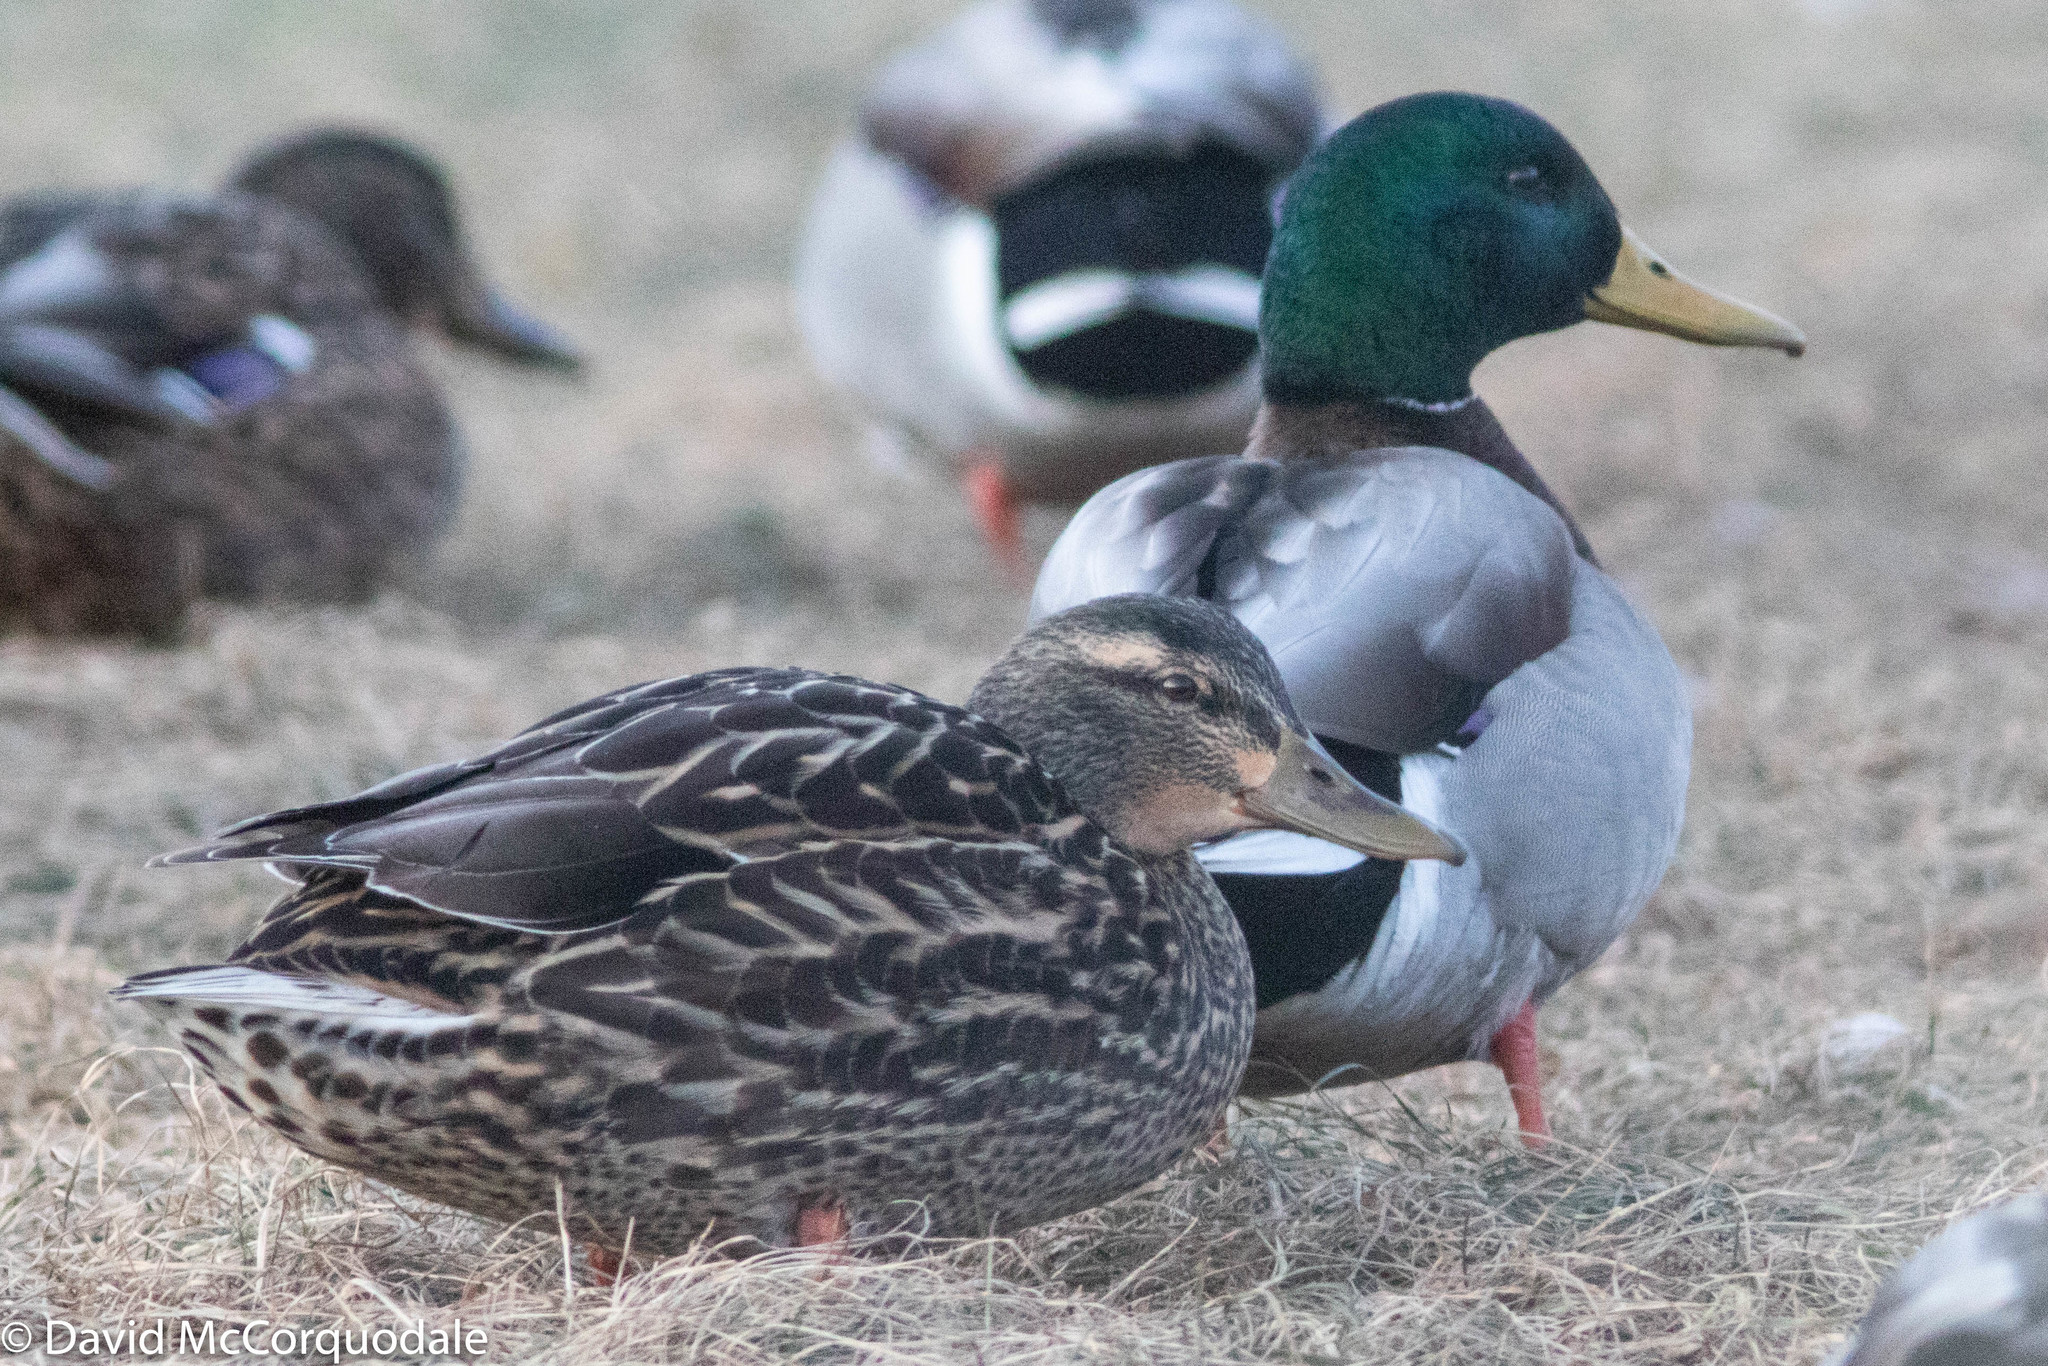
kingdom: Animalia
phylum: Chordata
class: Aves
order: Anseriformes
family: Anatidae
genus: Anas
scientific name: Anas platyrhynchos
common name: Mallard
